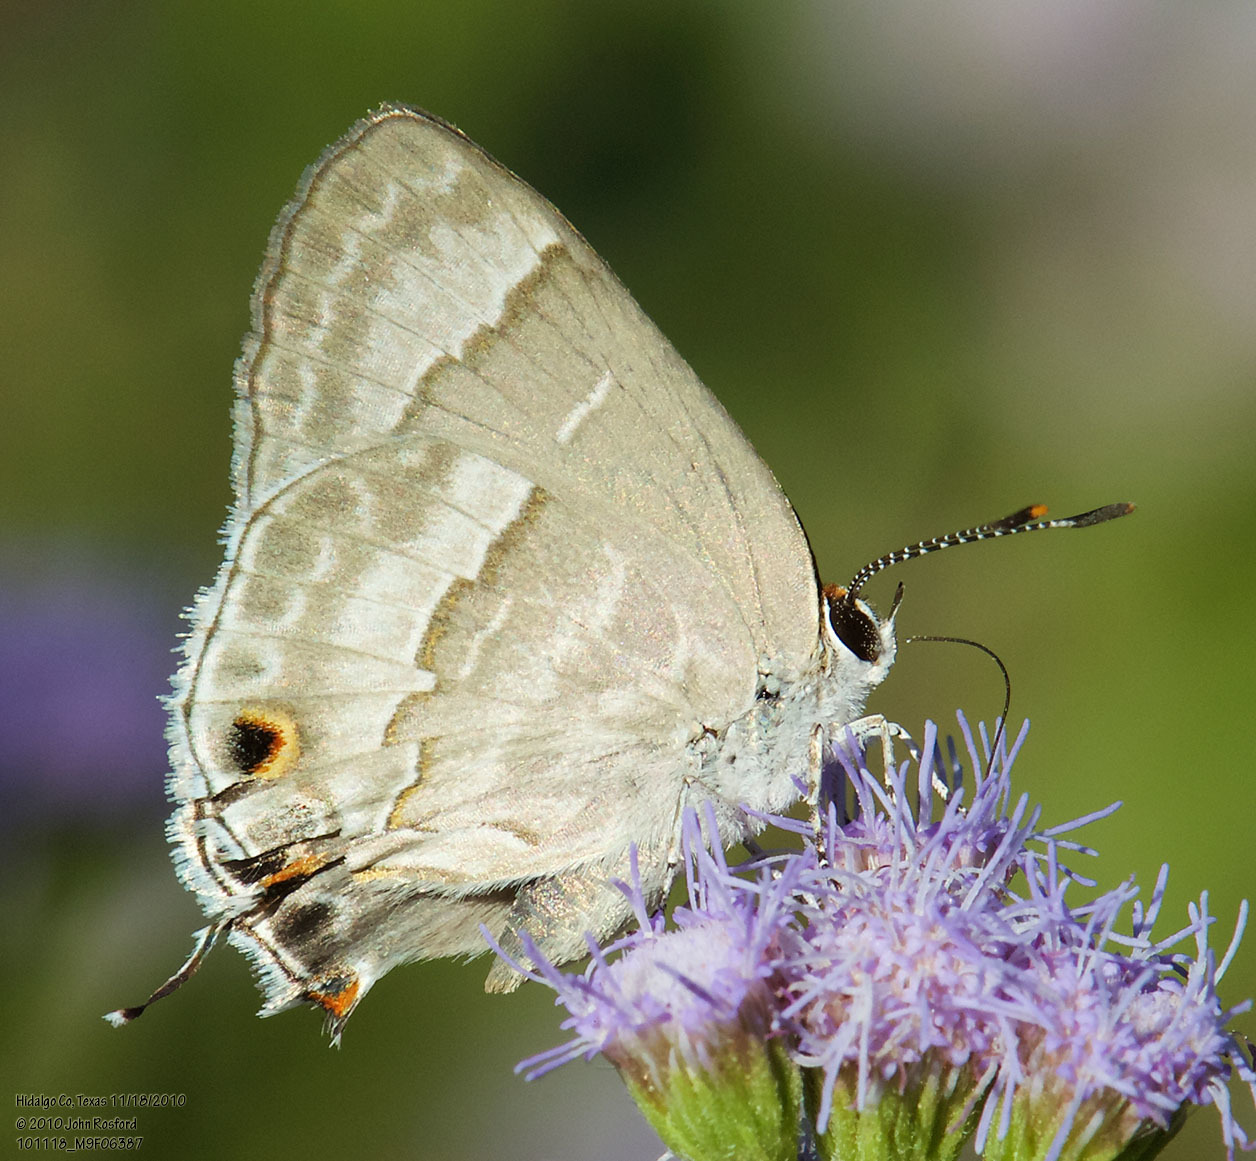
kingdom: Animalia
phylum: Arthropoda
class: Insecta
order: Lepidoptera
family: Lycaenidae
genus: Thecla
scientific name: Thecla yojoa
